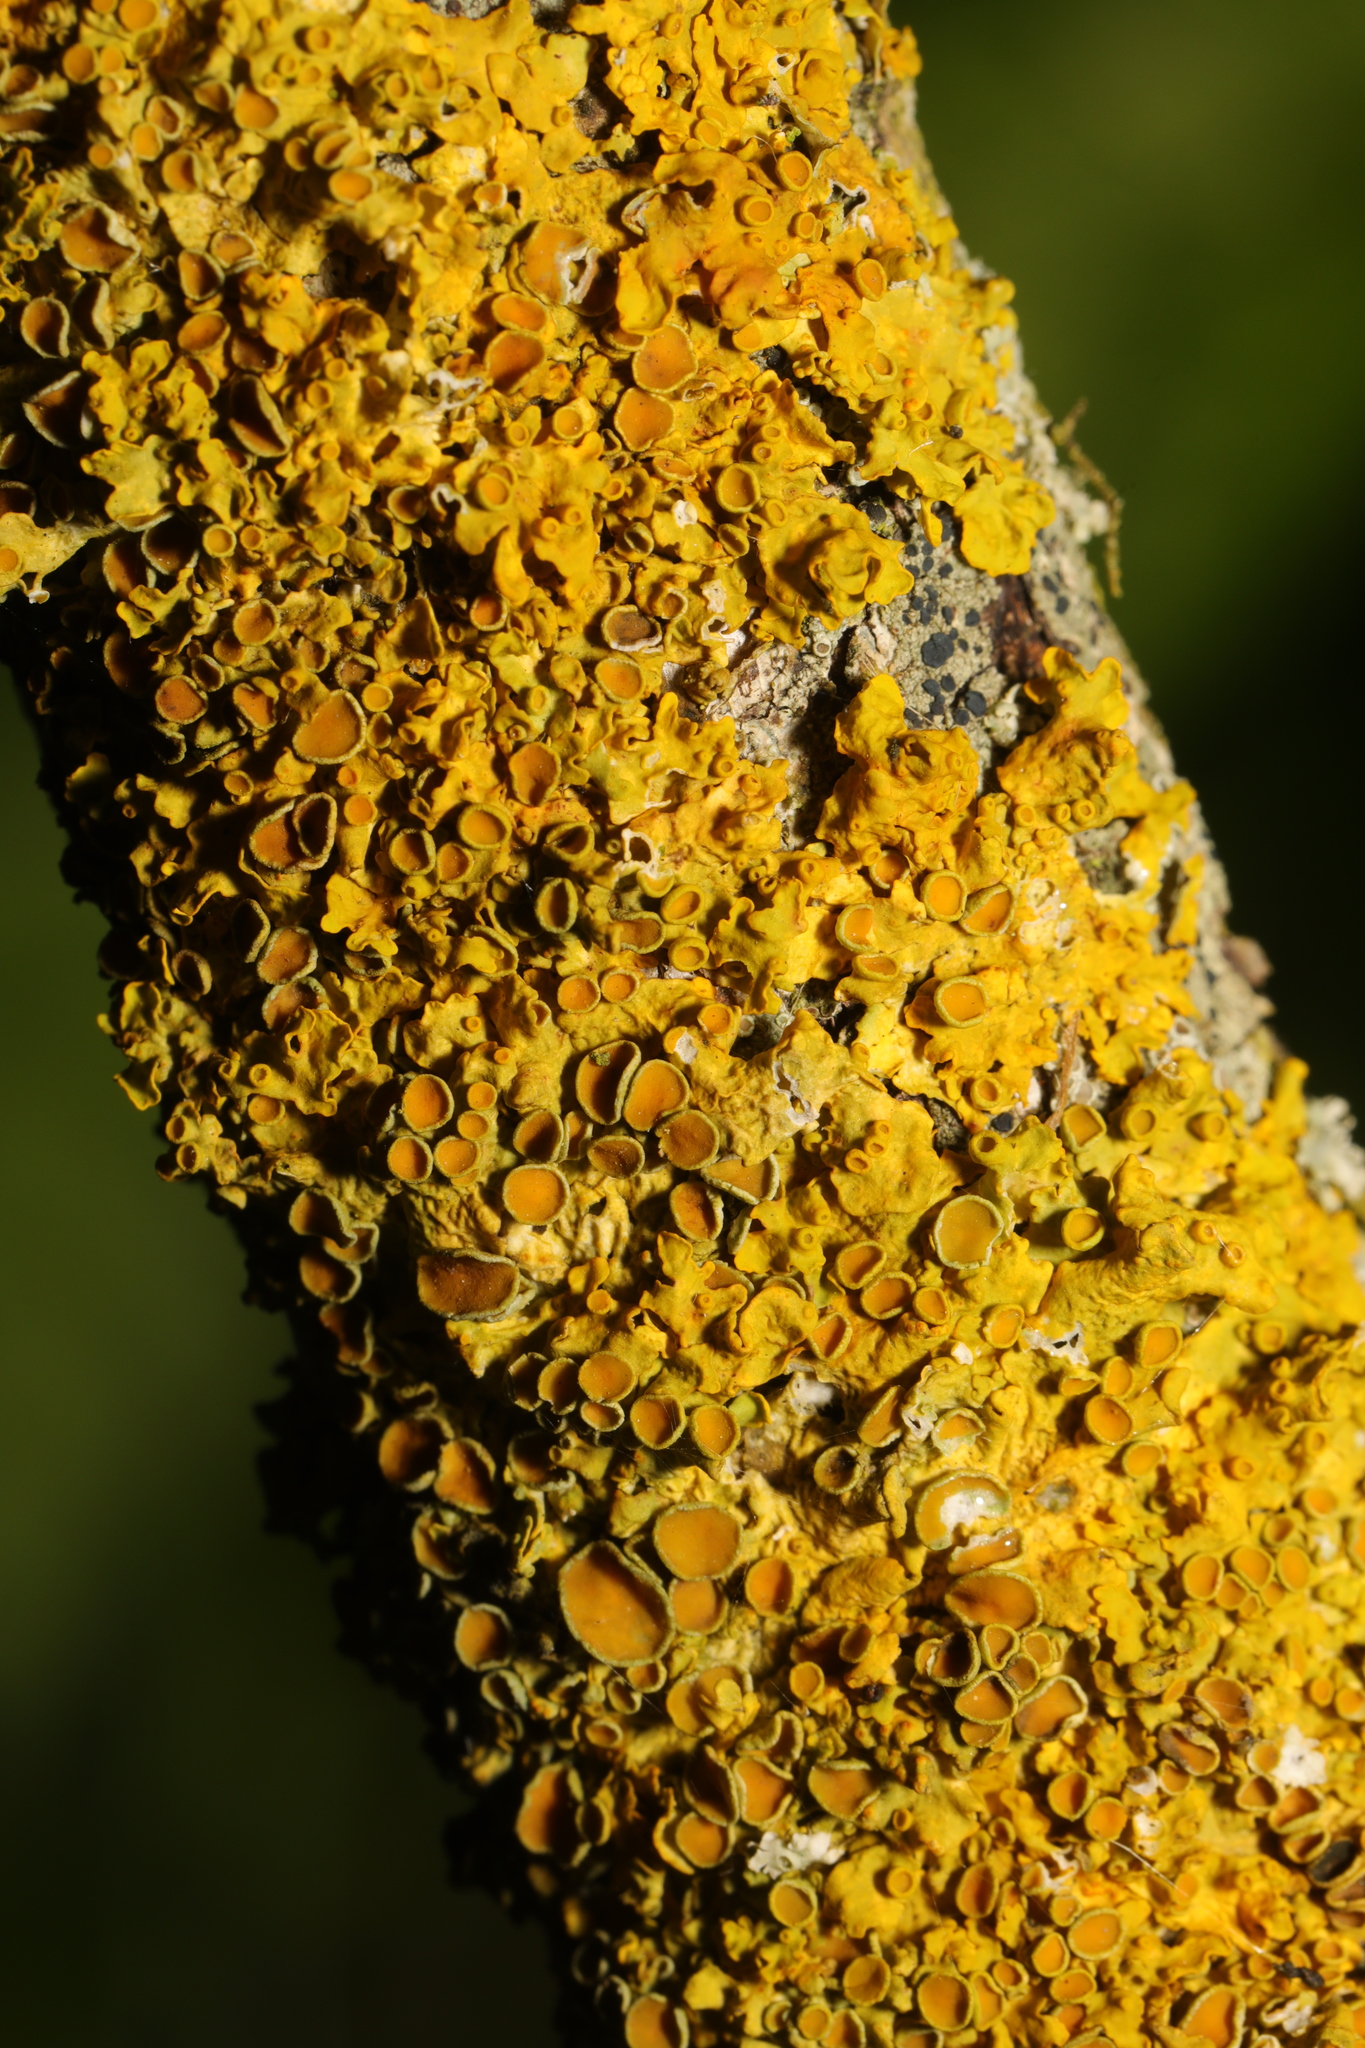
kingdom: Fungi
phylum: Ascomycota
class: Lecanoromycetes
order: Teloschistales
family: Teloschistaceae
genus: Xanthoria
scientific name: Xanthoria parietina
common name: Common orange lichen
